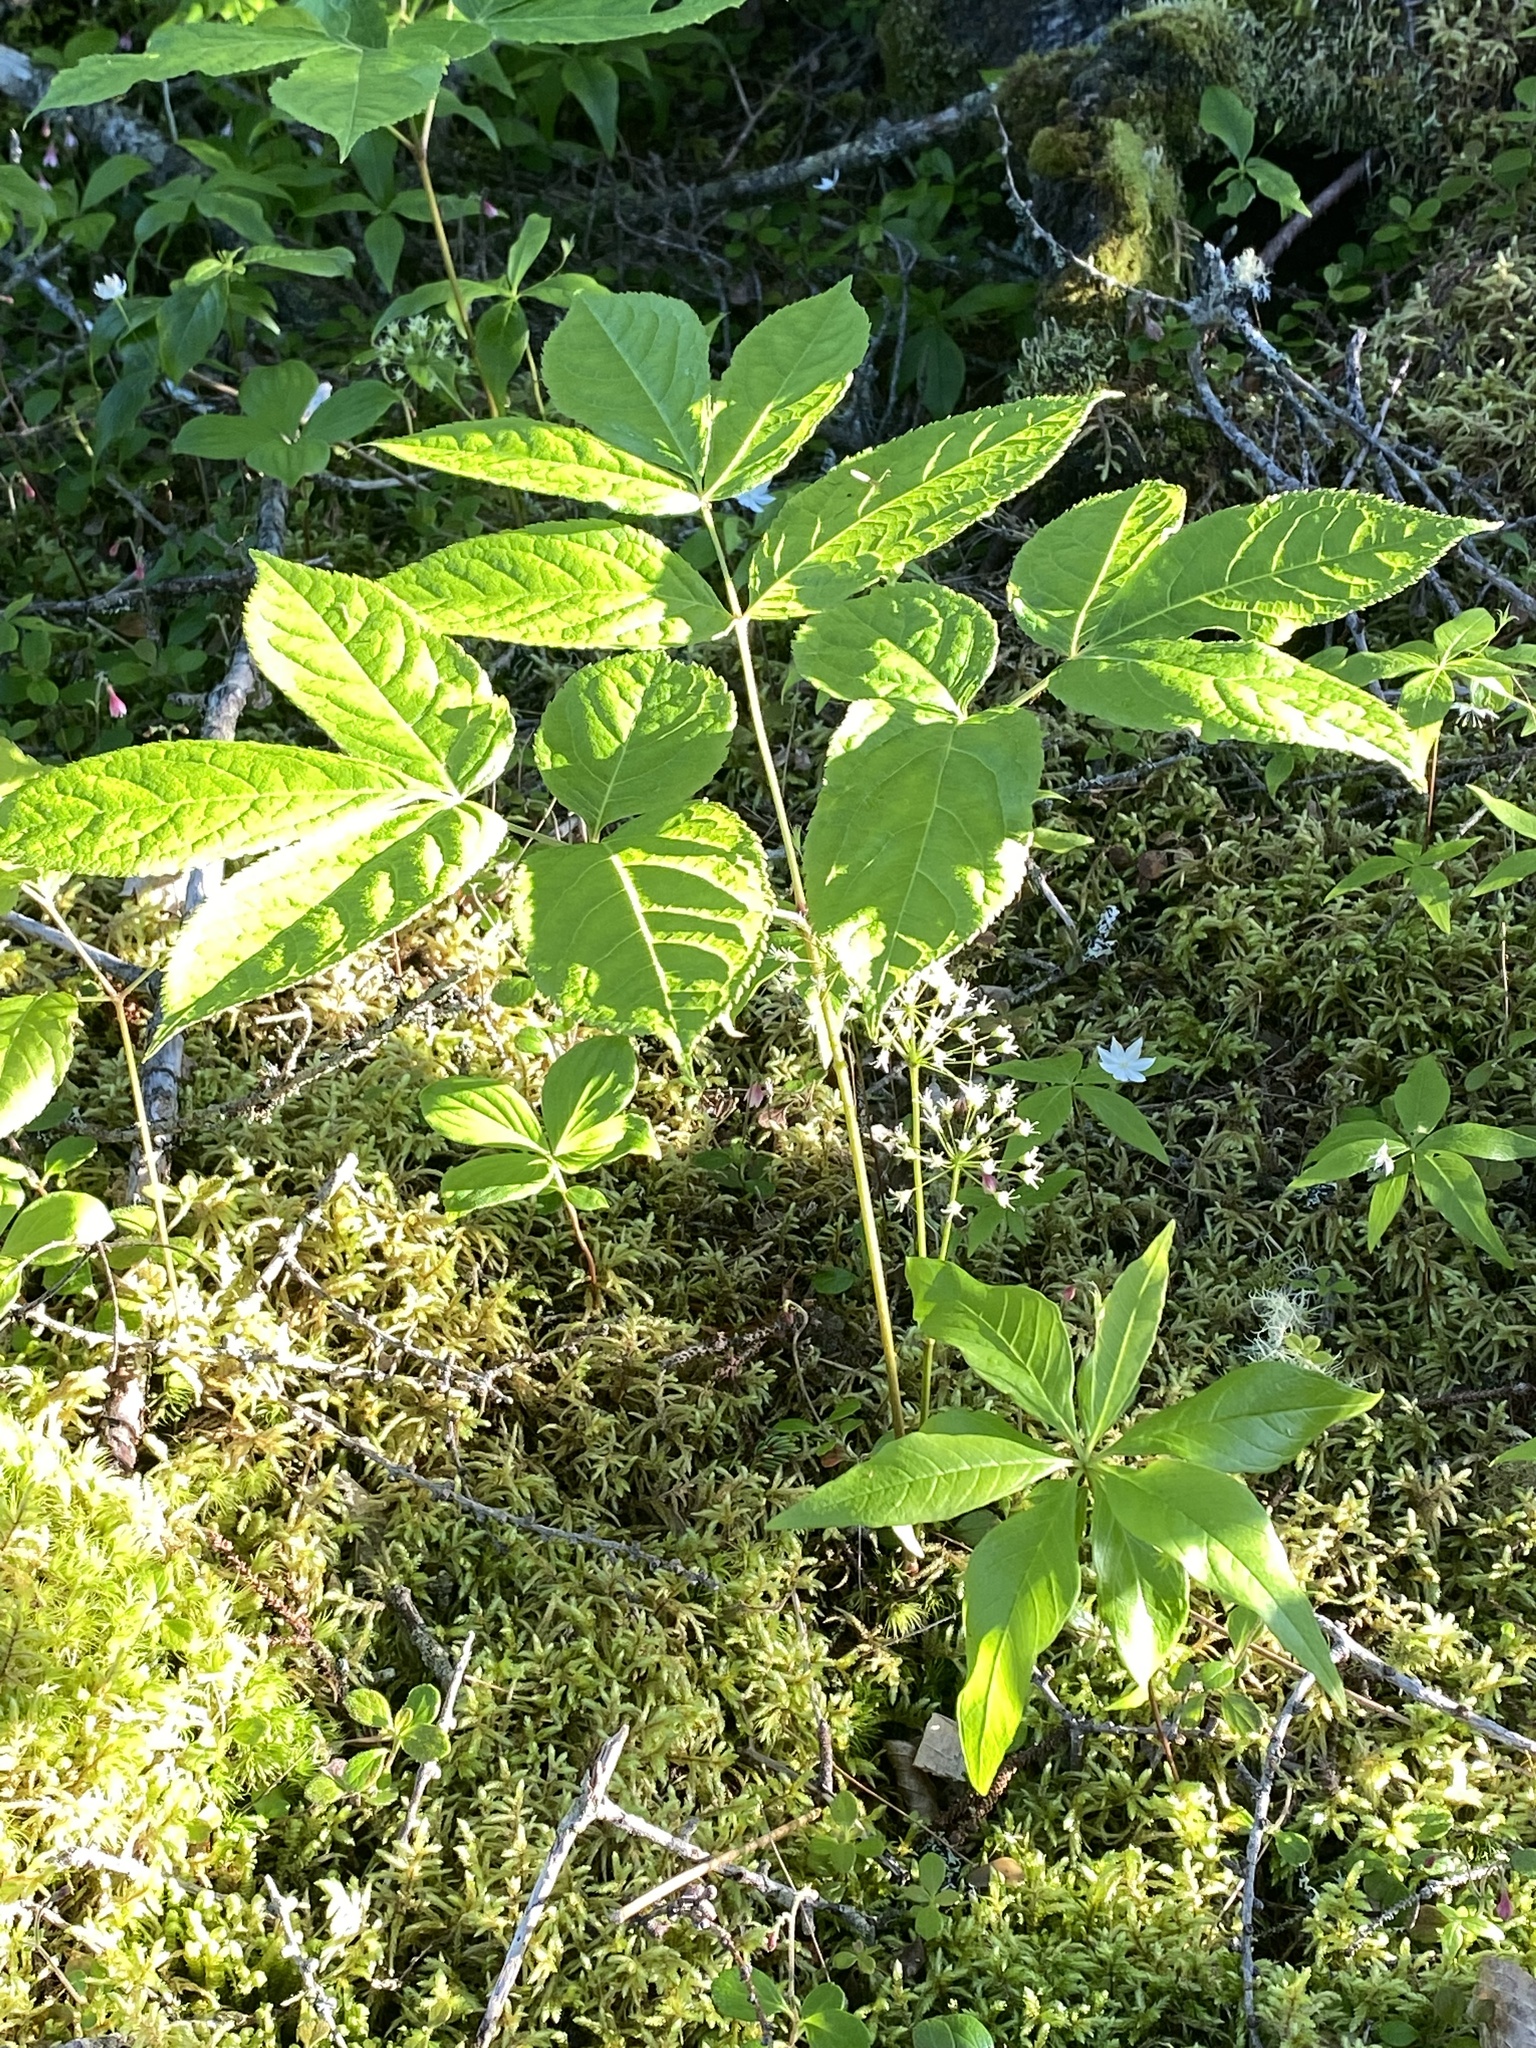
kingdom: Plantae
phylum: Tracheophyta
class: Magnoliopsida
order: Apiales
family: Araliaceae
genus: Aralia
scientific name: Aralia nudicaulis
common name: Wild sarsaparilla
